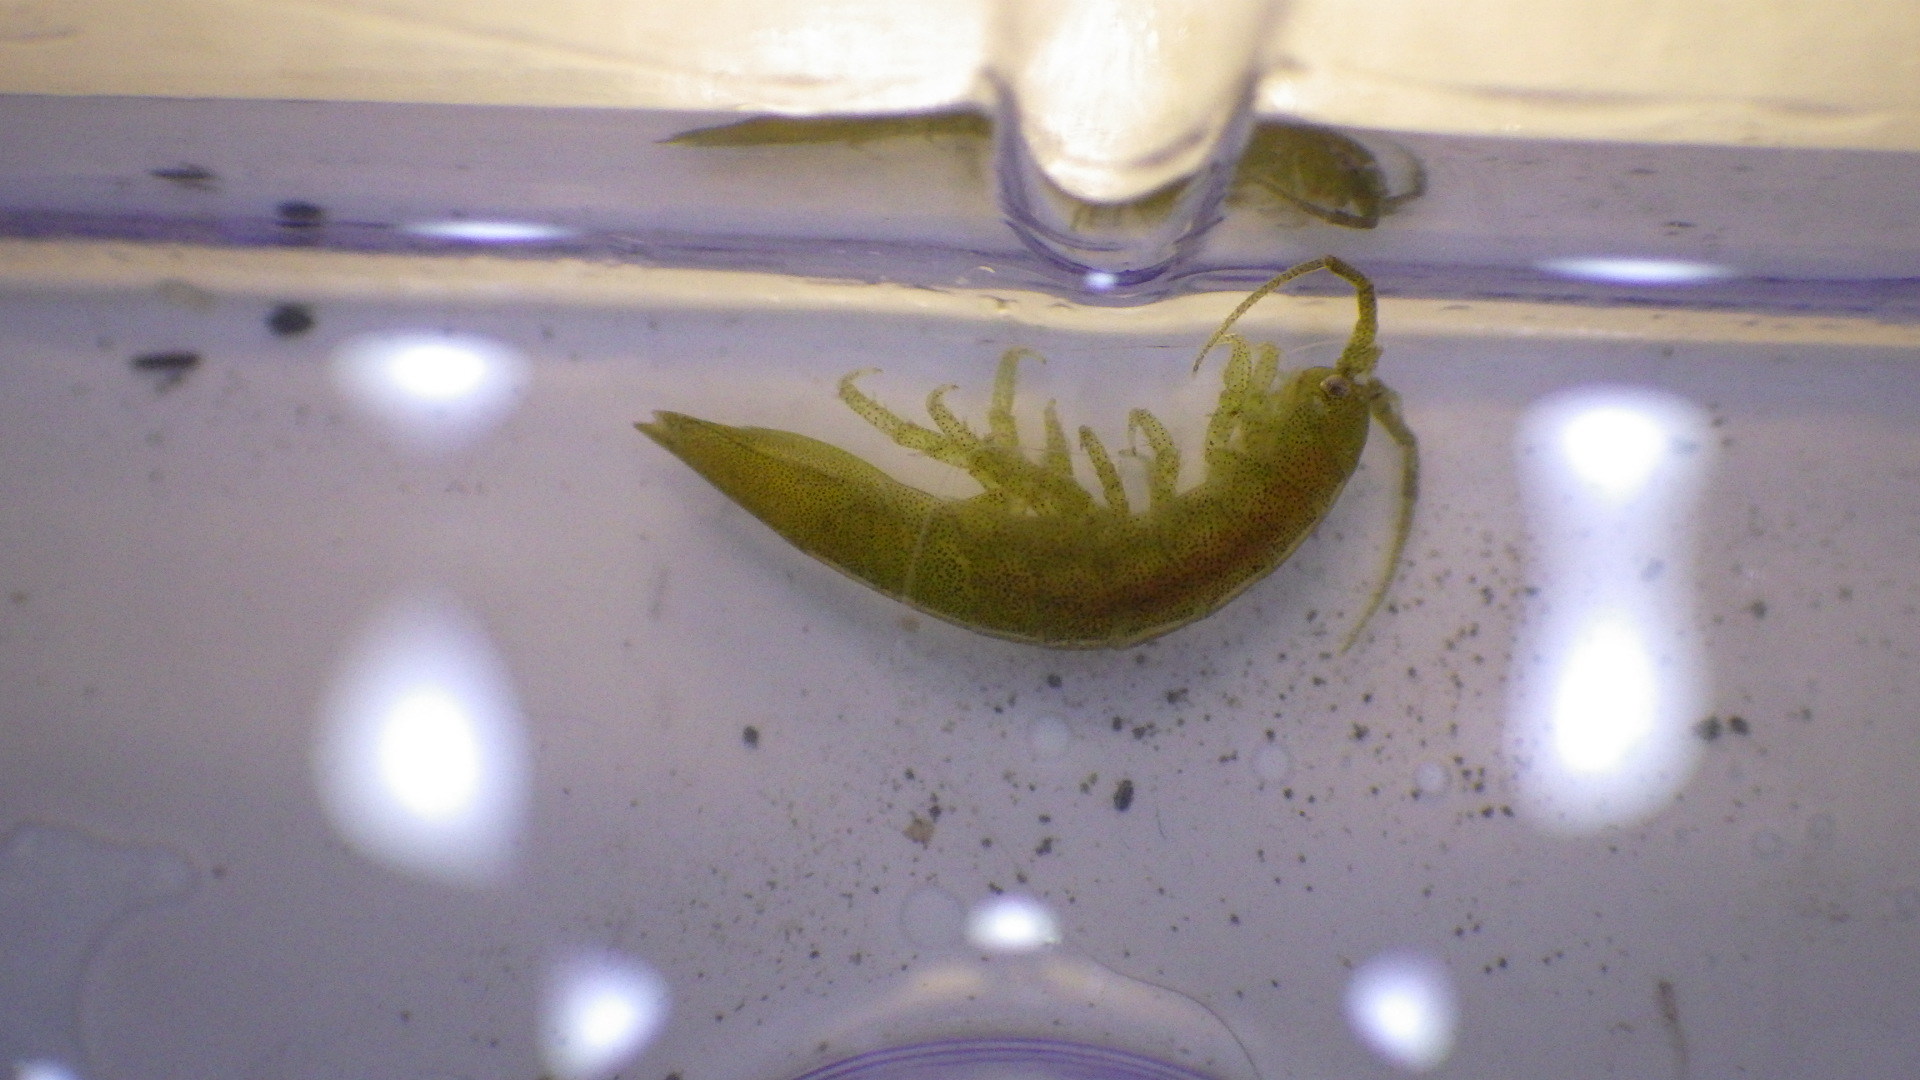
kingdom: Animalia
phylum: Arthropoda
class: Malacostraca
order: Isopoda
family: Idoteidae
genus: Idotea
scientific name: Idotea balthica
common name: Baltic isopod
